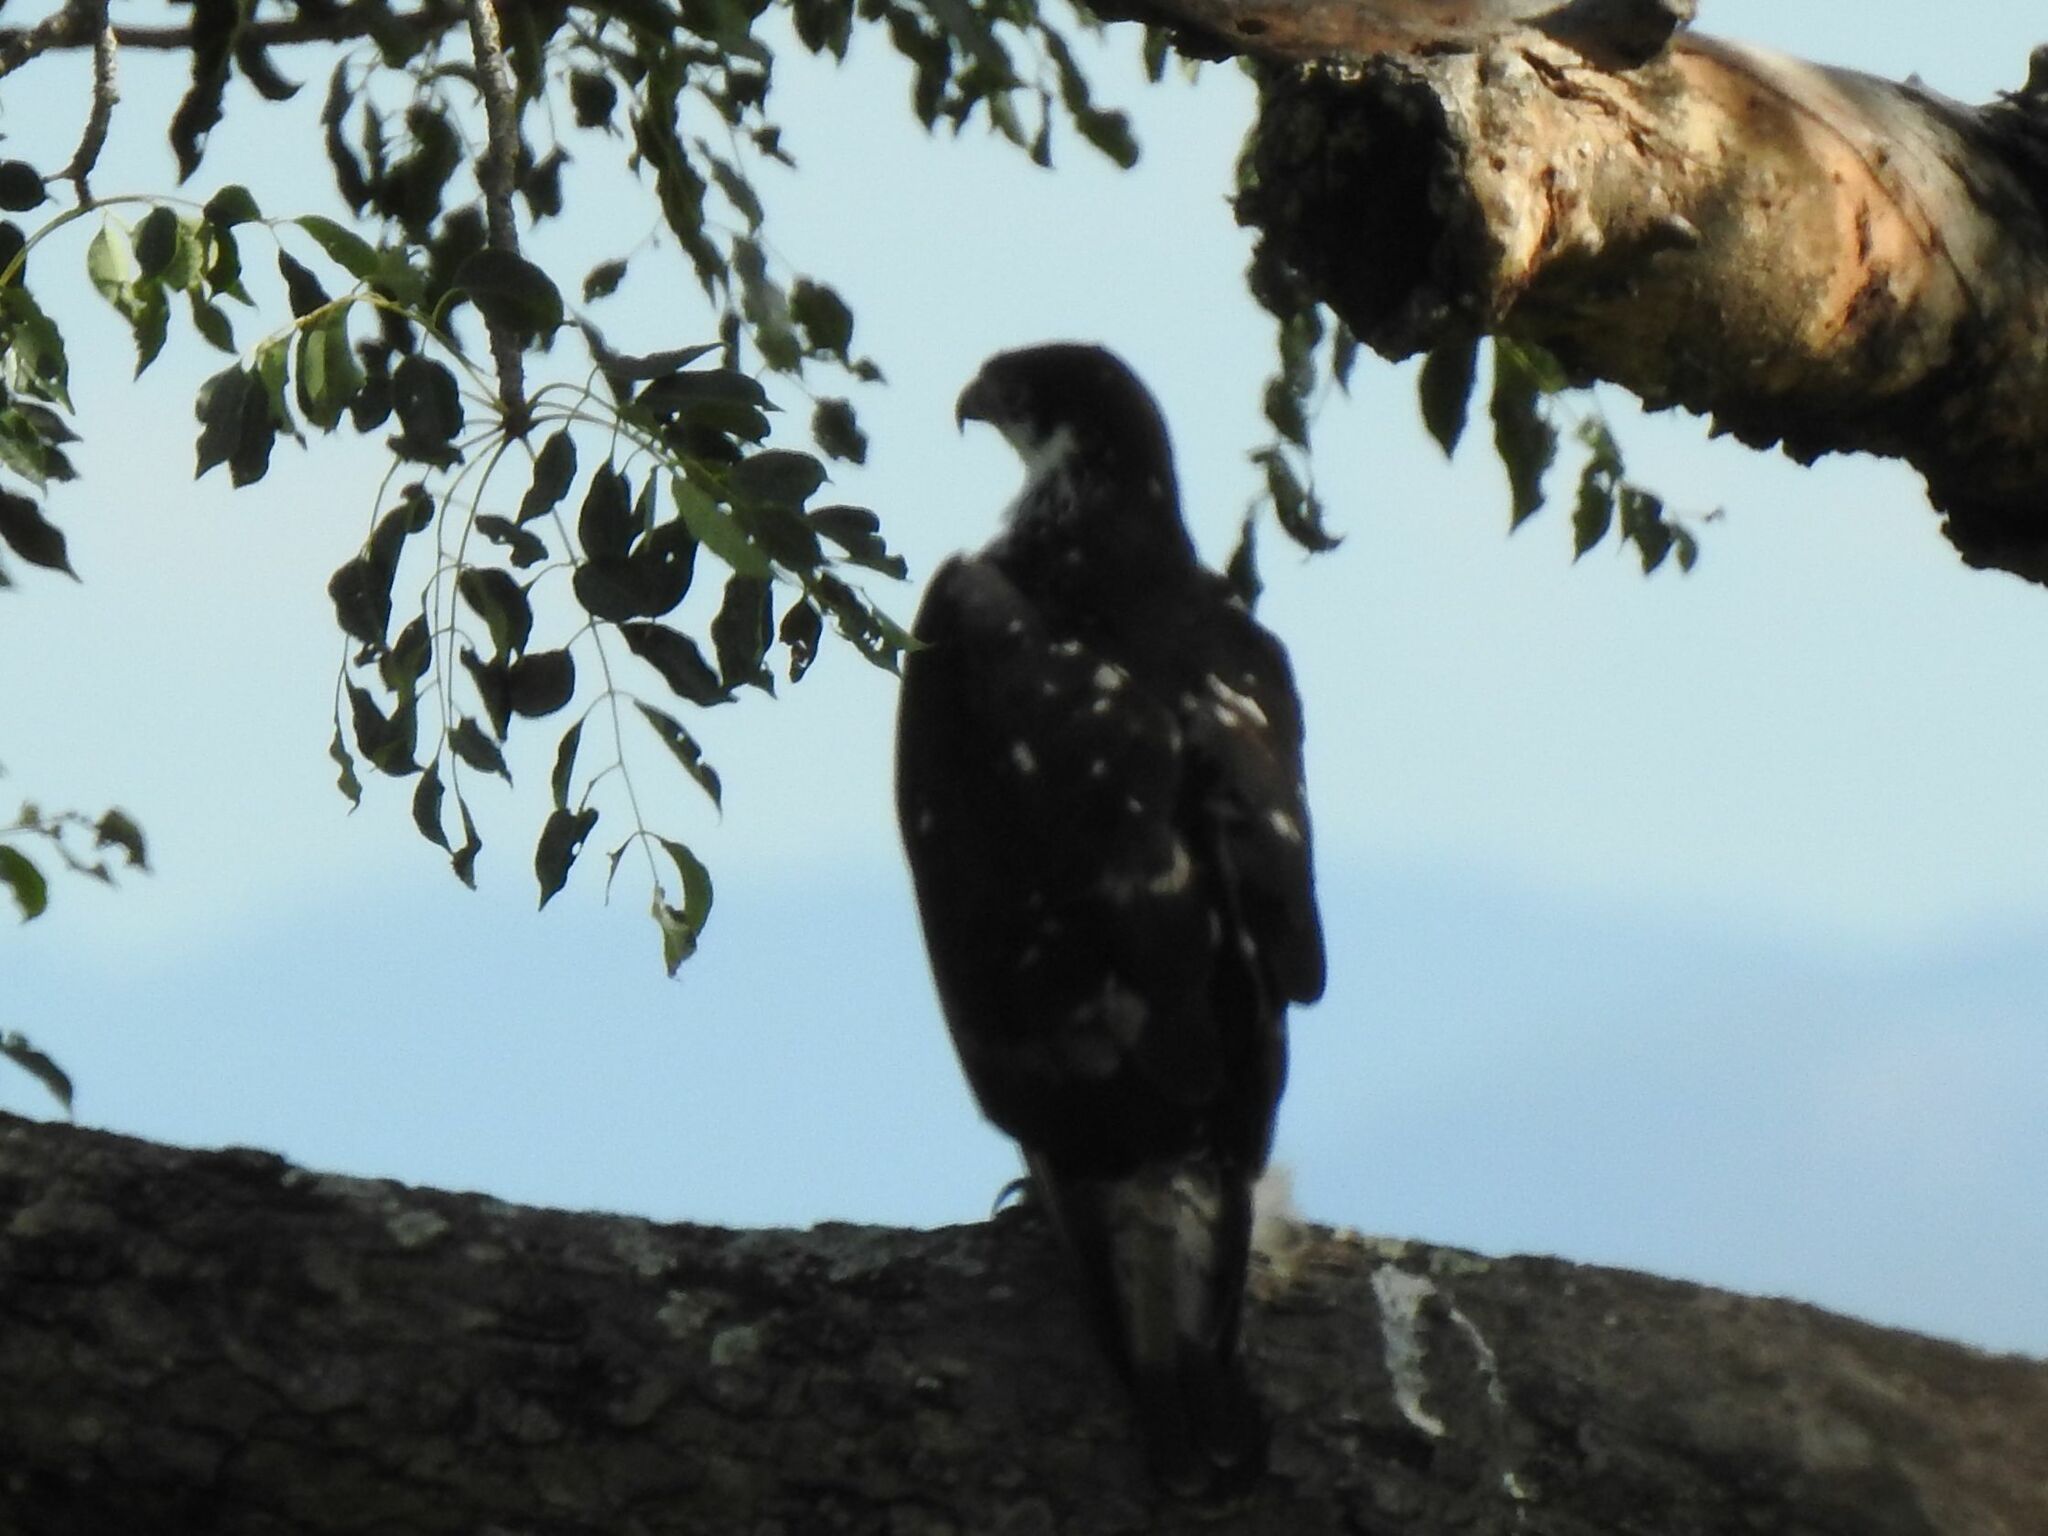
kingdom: Animalia
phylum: Chordata
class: Aves
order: Accipitriformes
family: Accipitridae
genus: Aquila
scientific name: Aquila spilogaster
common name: African hawk-eagle
